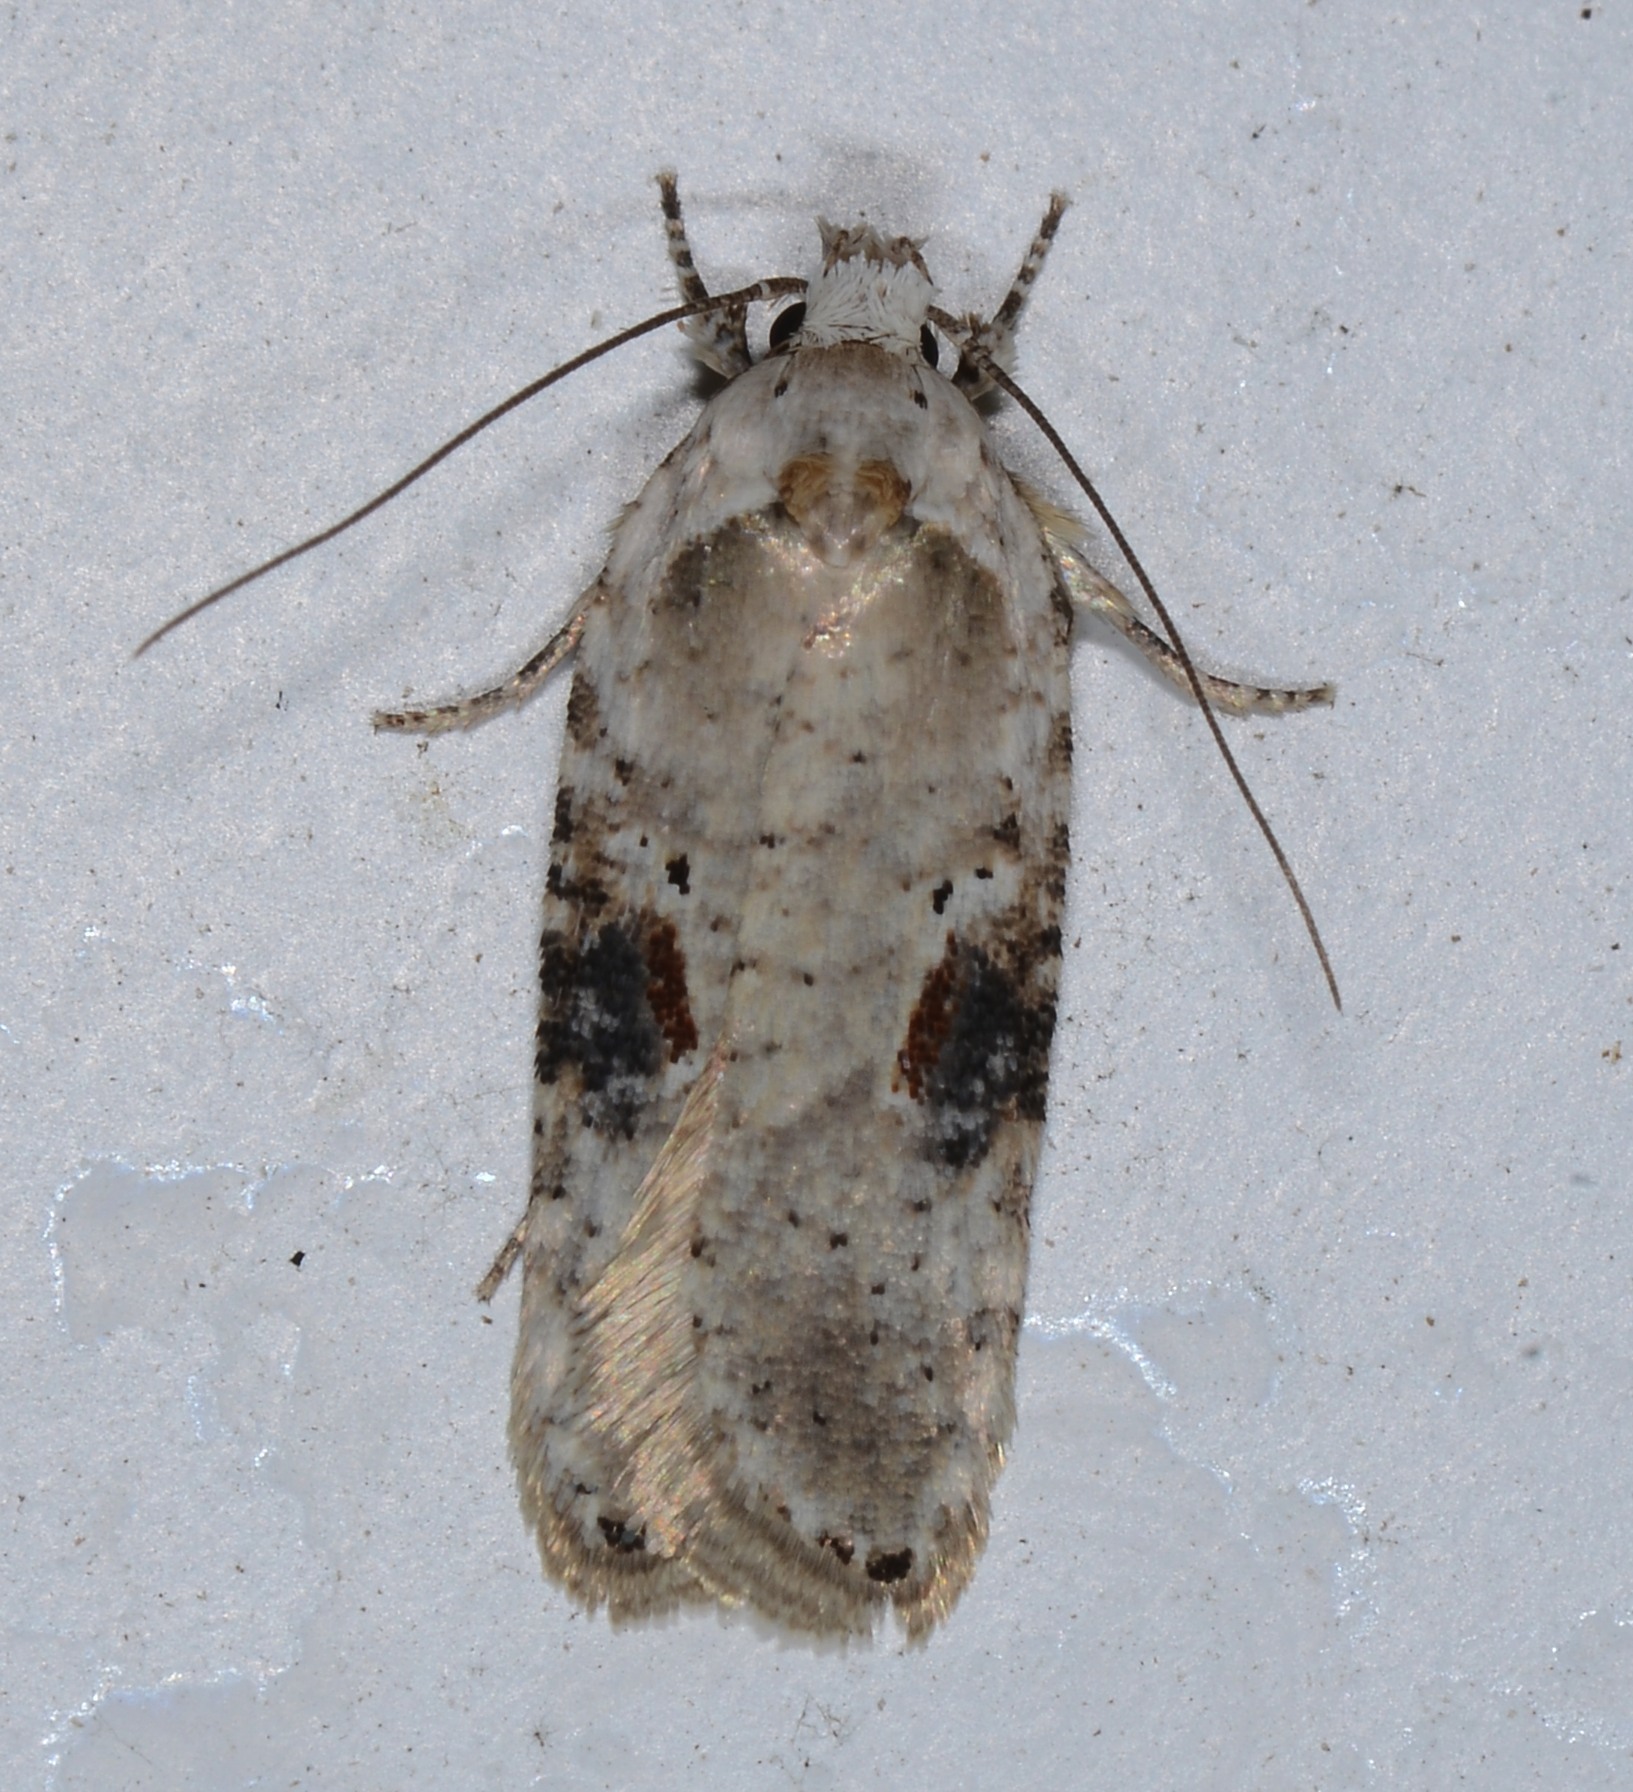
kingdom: Animalia
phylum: Arthropoda
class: Insecta
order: Lepidoptera
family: Depressariidae
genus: Agonopterix
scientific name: Agonopterix alstroemeriana
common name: Moth
